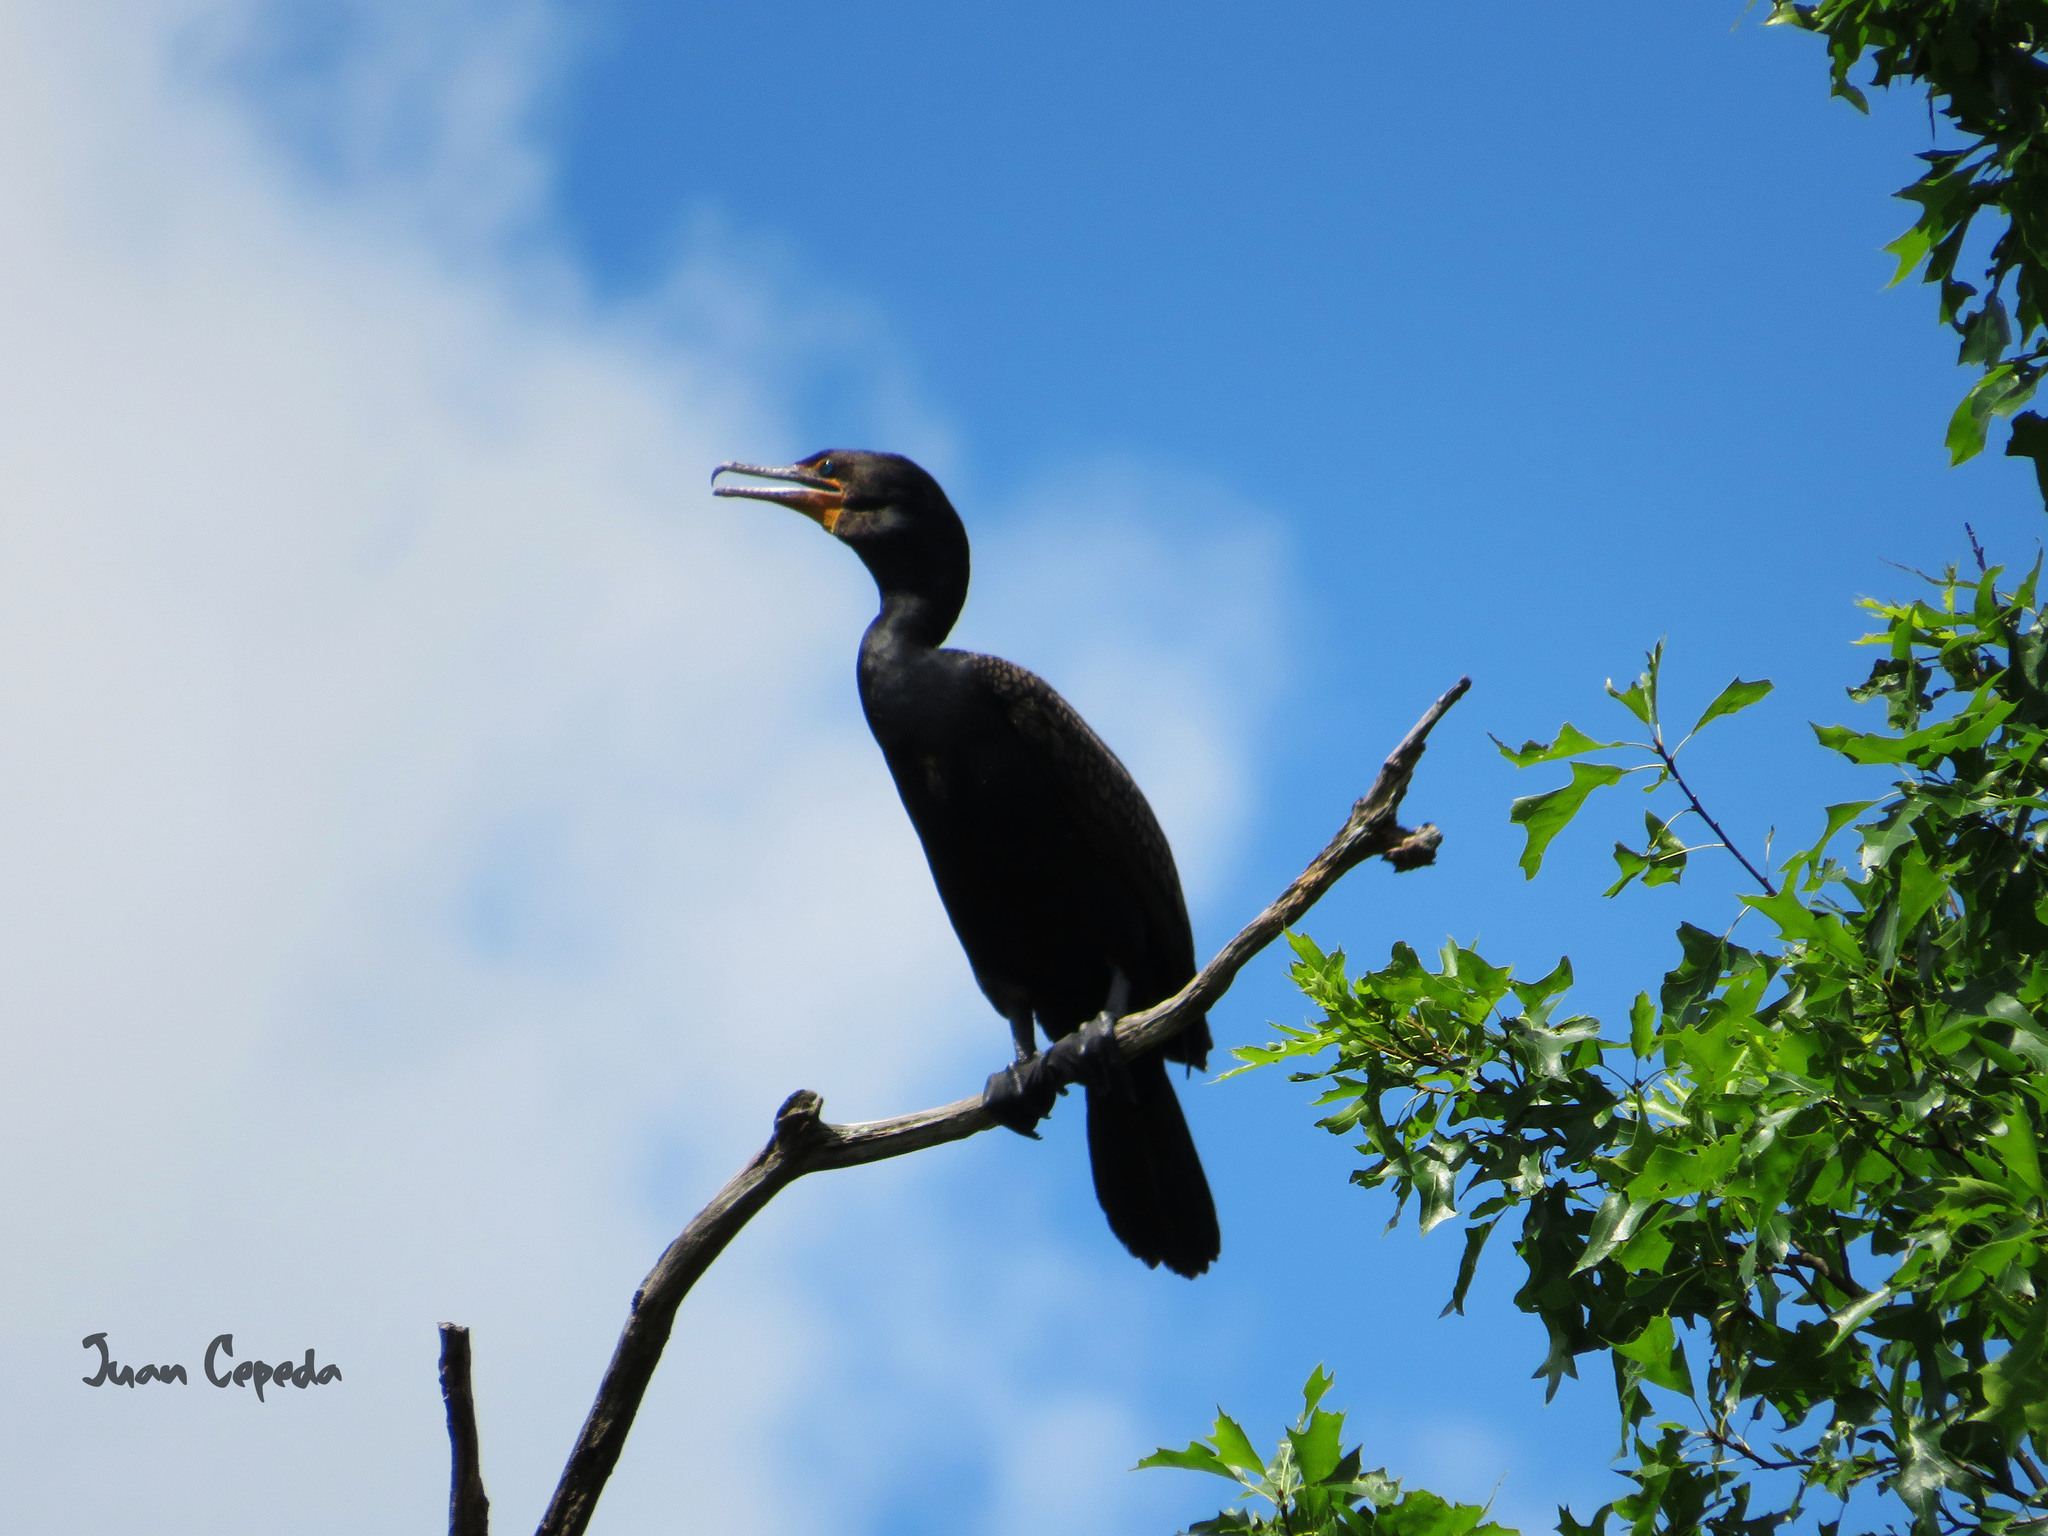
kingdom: Animalia
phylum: Chordata
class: Aves
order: Suliformes
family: Phalacrocoracidae
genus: Phalacrocorax
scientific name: Phalacrocorax auritus
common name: Double-crested cormorant
